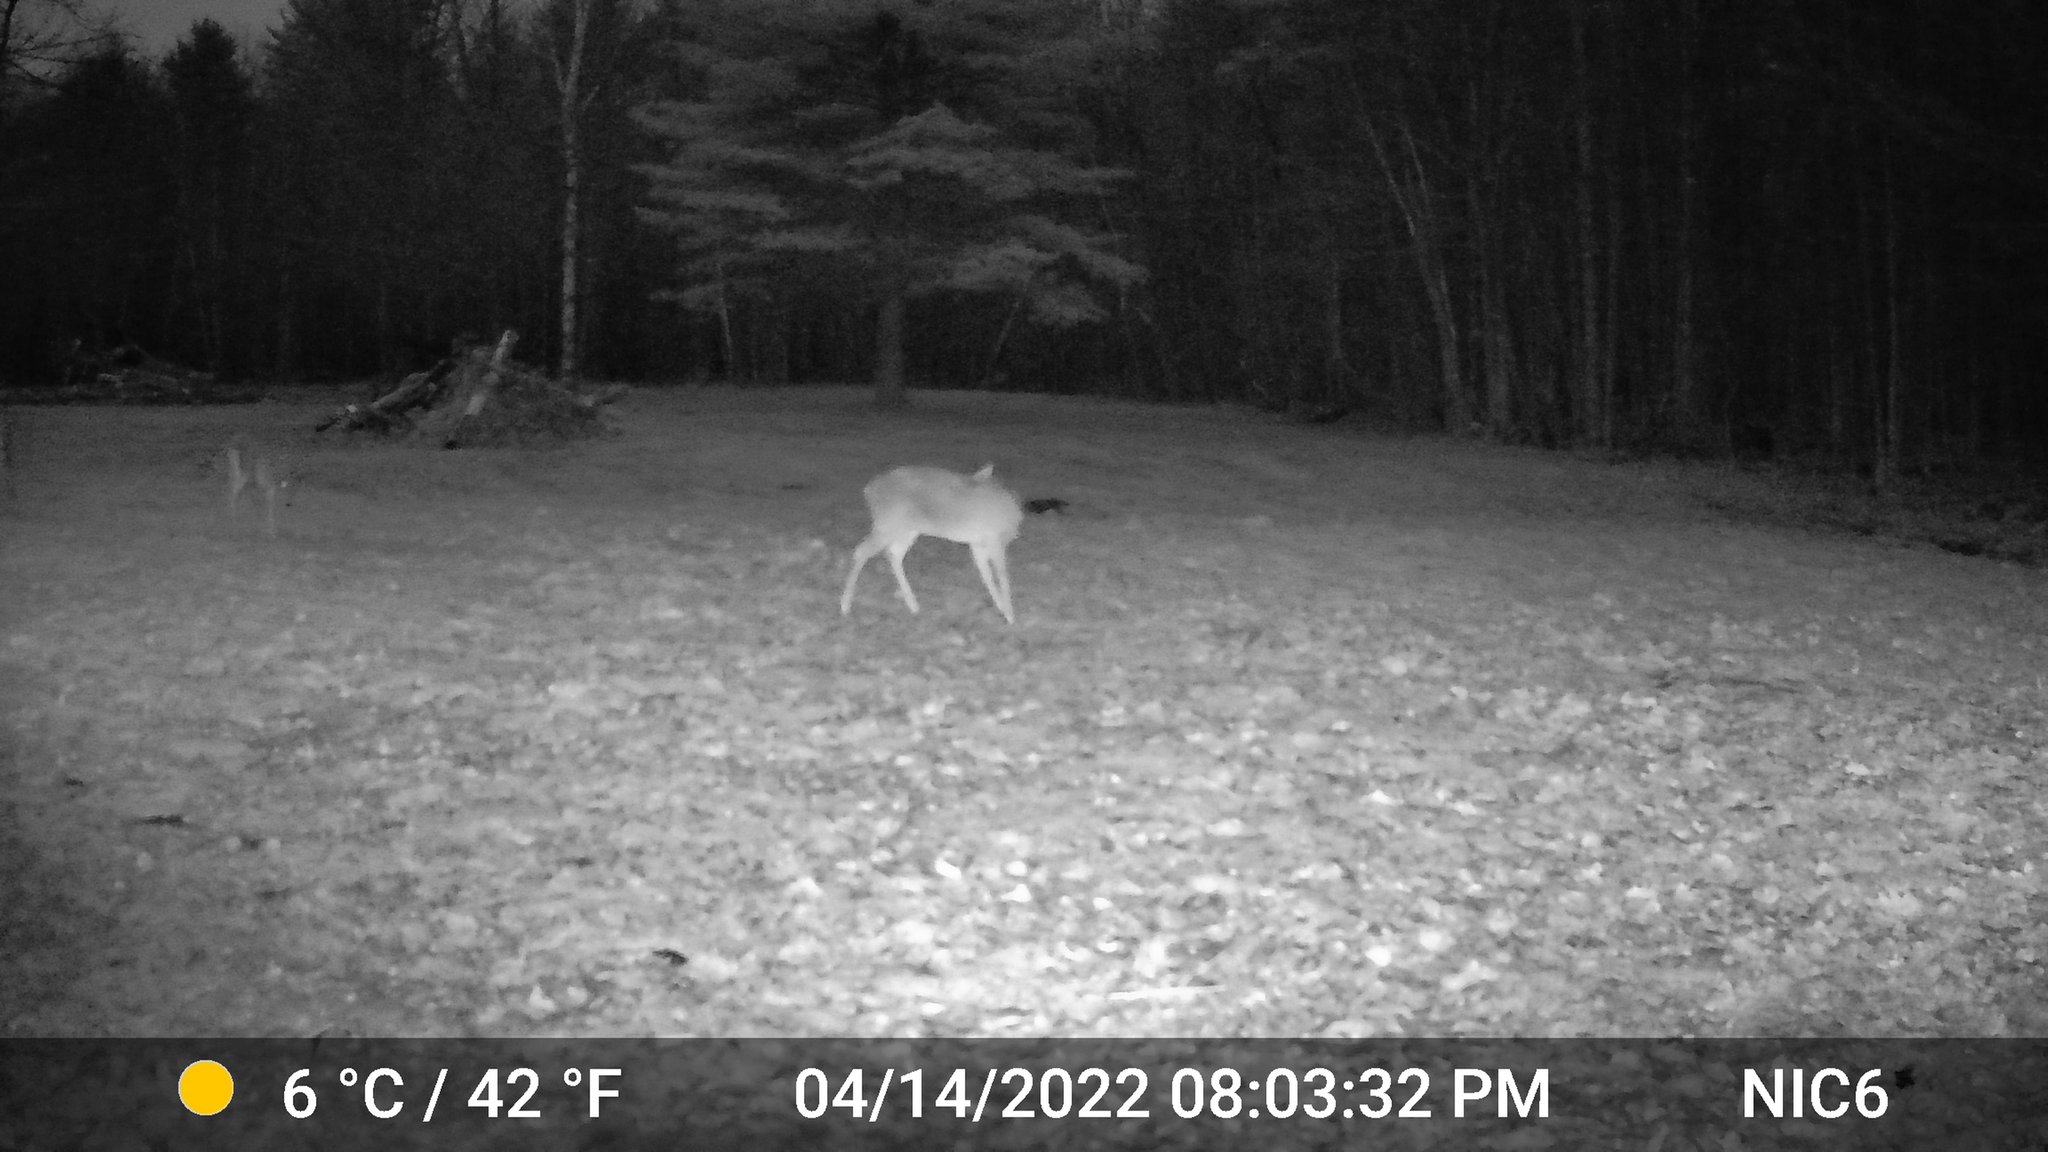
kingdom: Animalia
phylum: Chordata
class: Mammalia
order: Artiodactyla
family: Cervidae
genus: Odocoileus
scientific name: Odocoileus virginianus
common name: White-tailed deer
